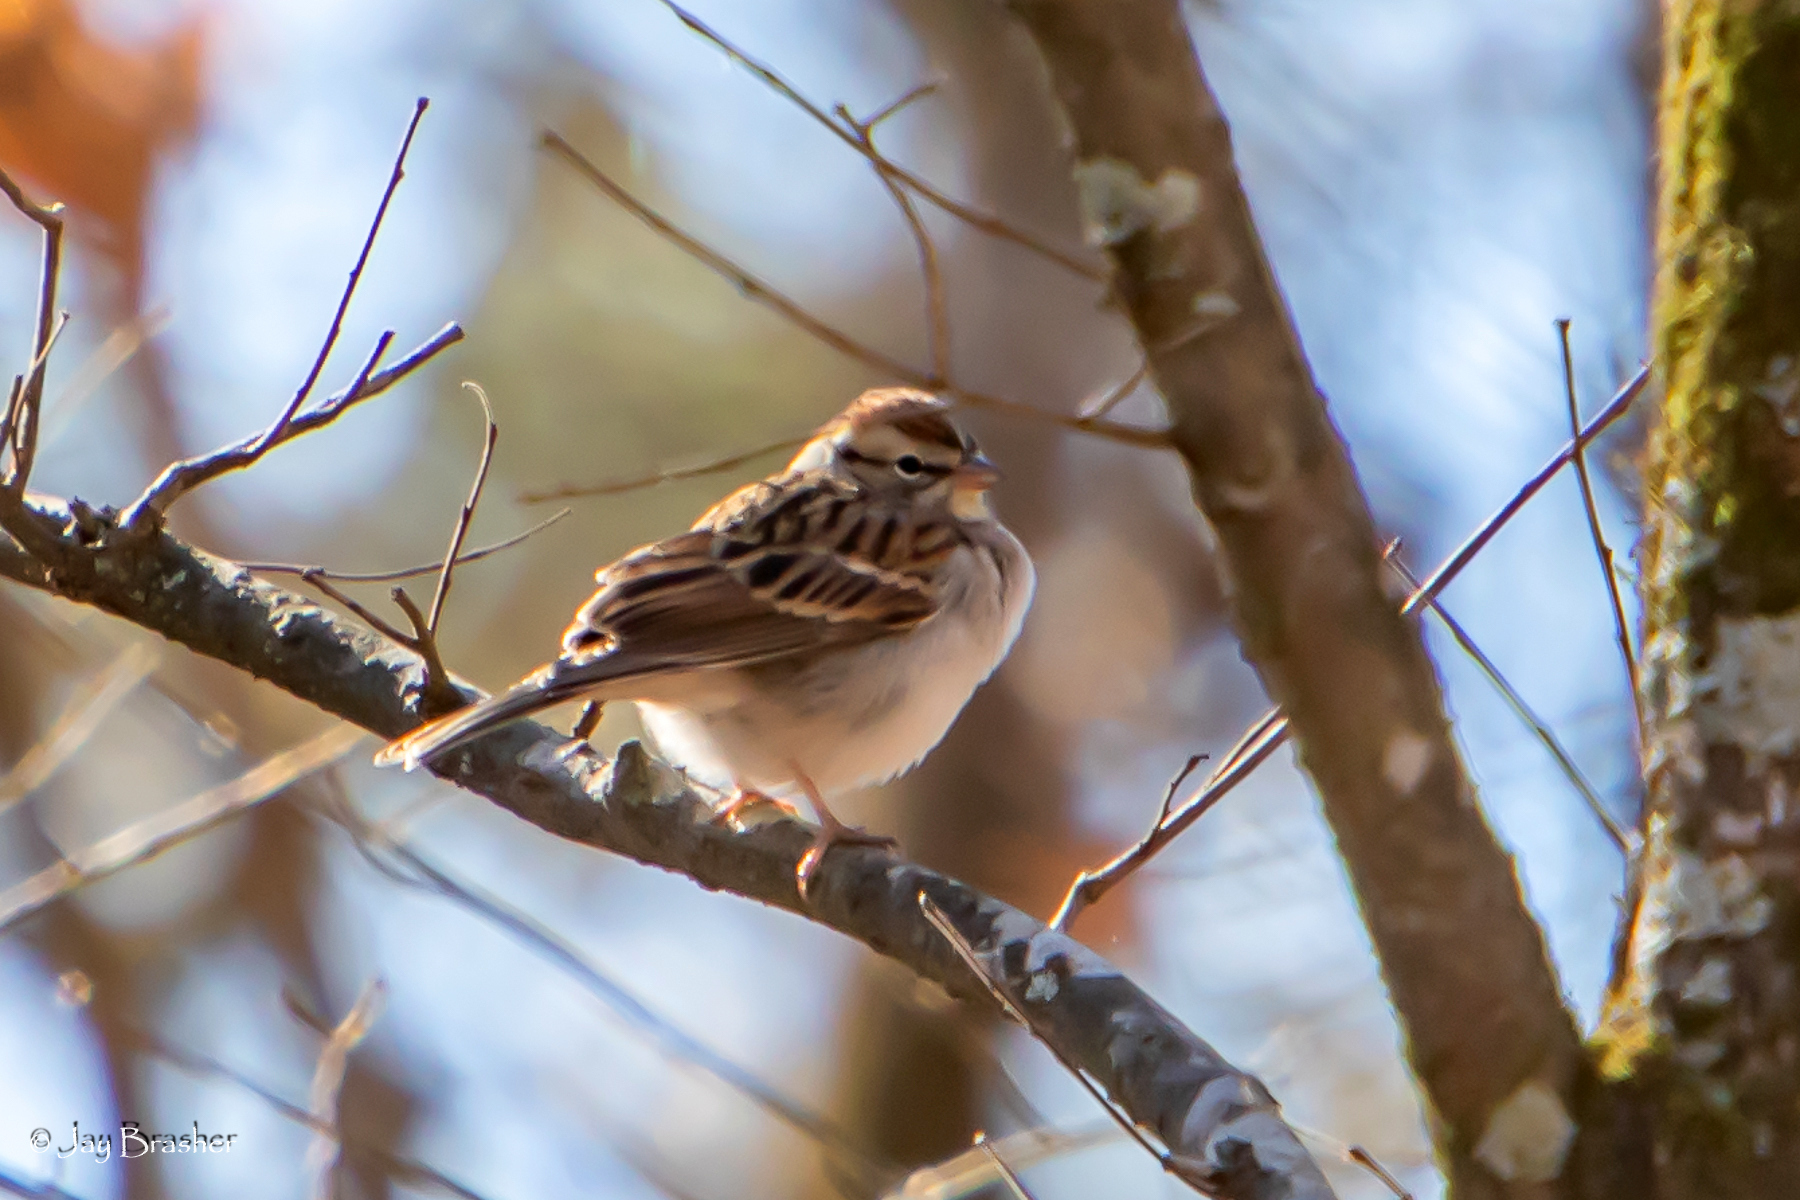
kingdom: Animalia
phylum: Chordata
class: Aves
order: Passeriformes
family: Passerellidae
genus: Spizella
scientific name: Spizella passerina
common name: Chipping sparrow
